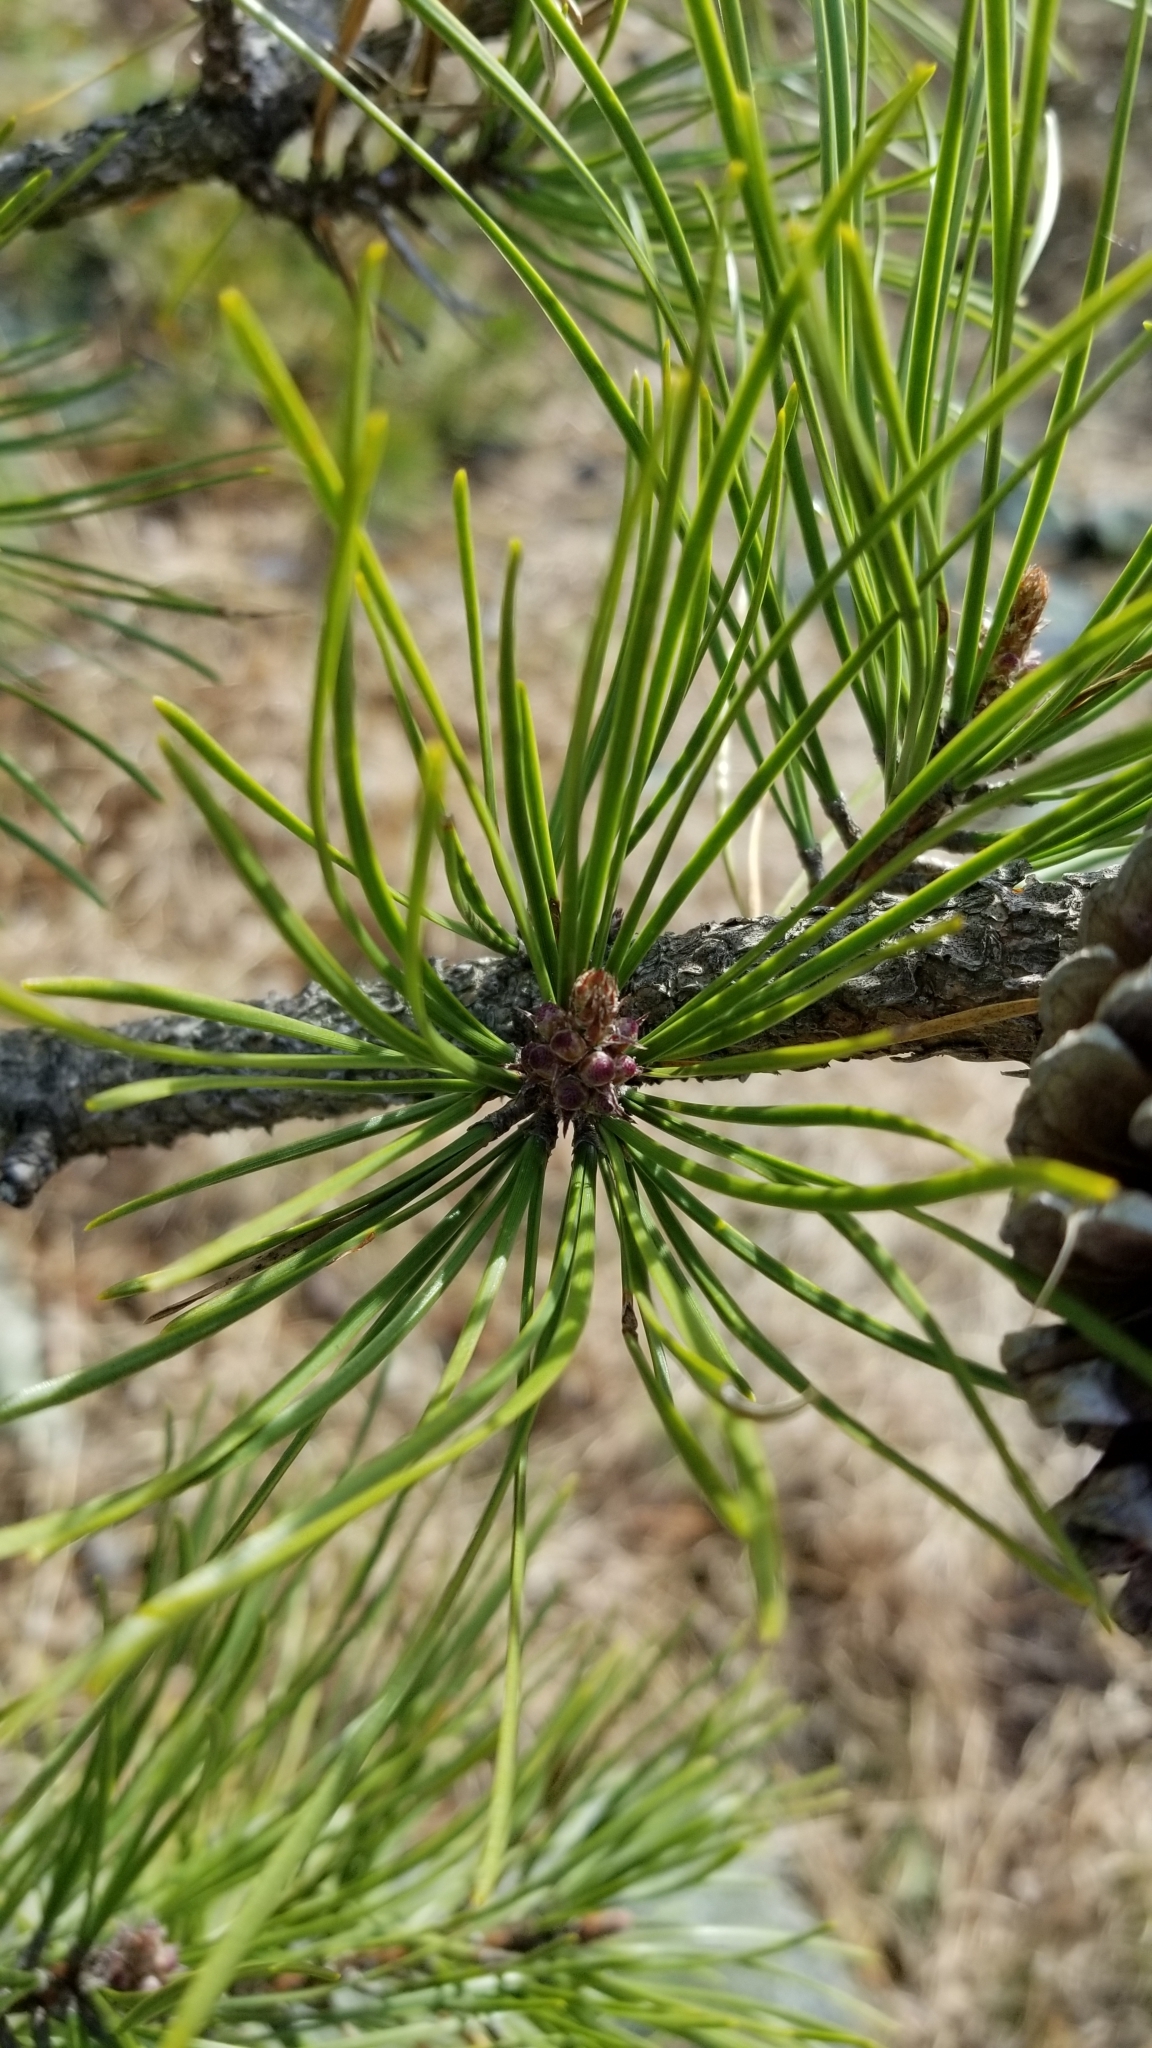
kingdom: Plantae
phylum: Tracheophyta
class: Pinopsida
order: Pinales
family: Pinaceae
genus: Pinus
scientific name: Pinus rigida
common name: Pitch pine
